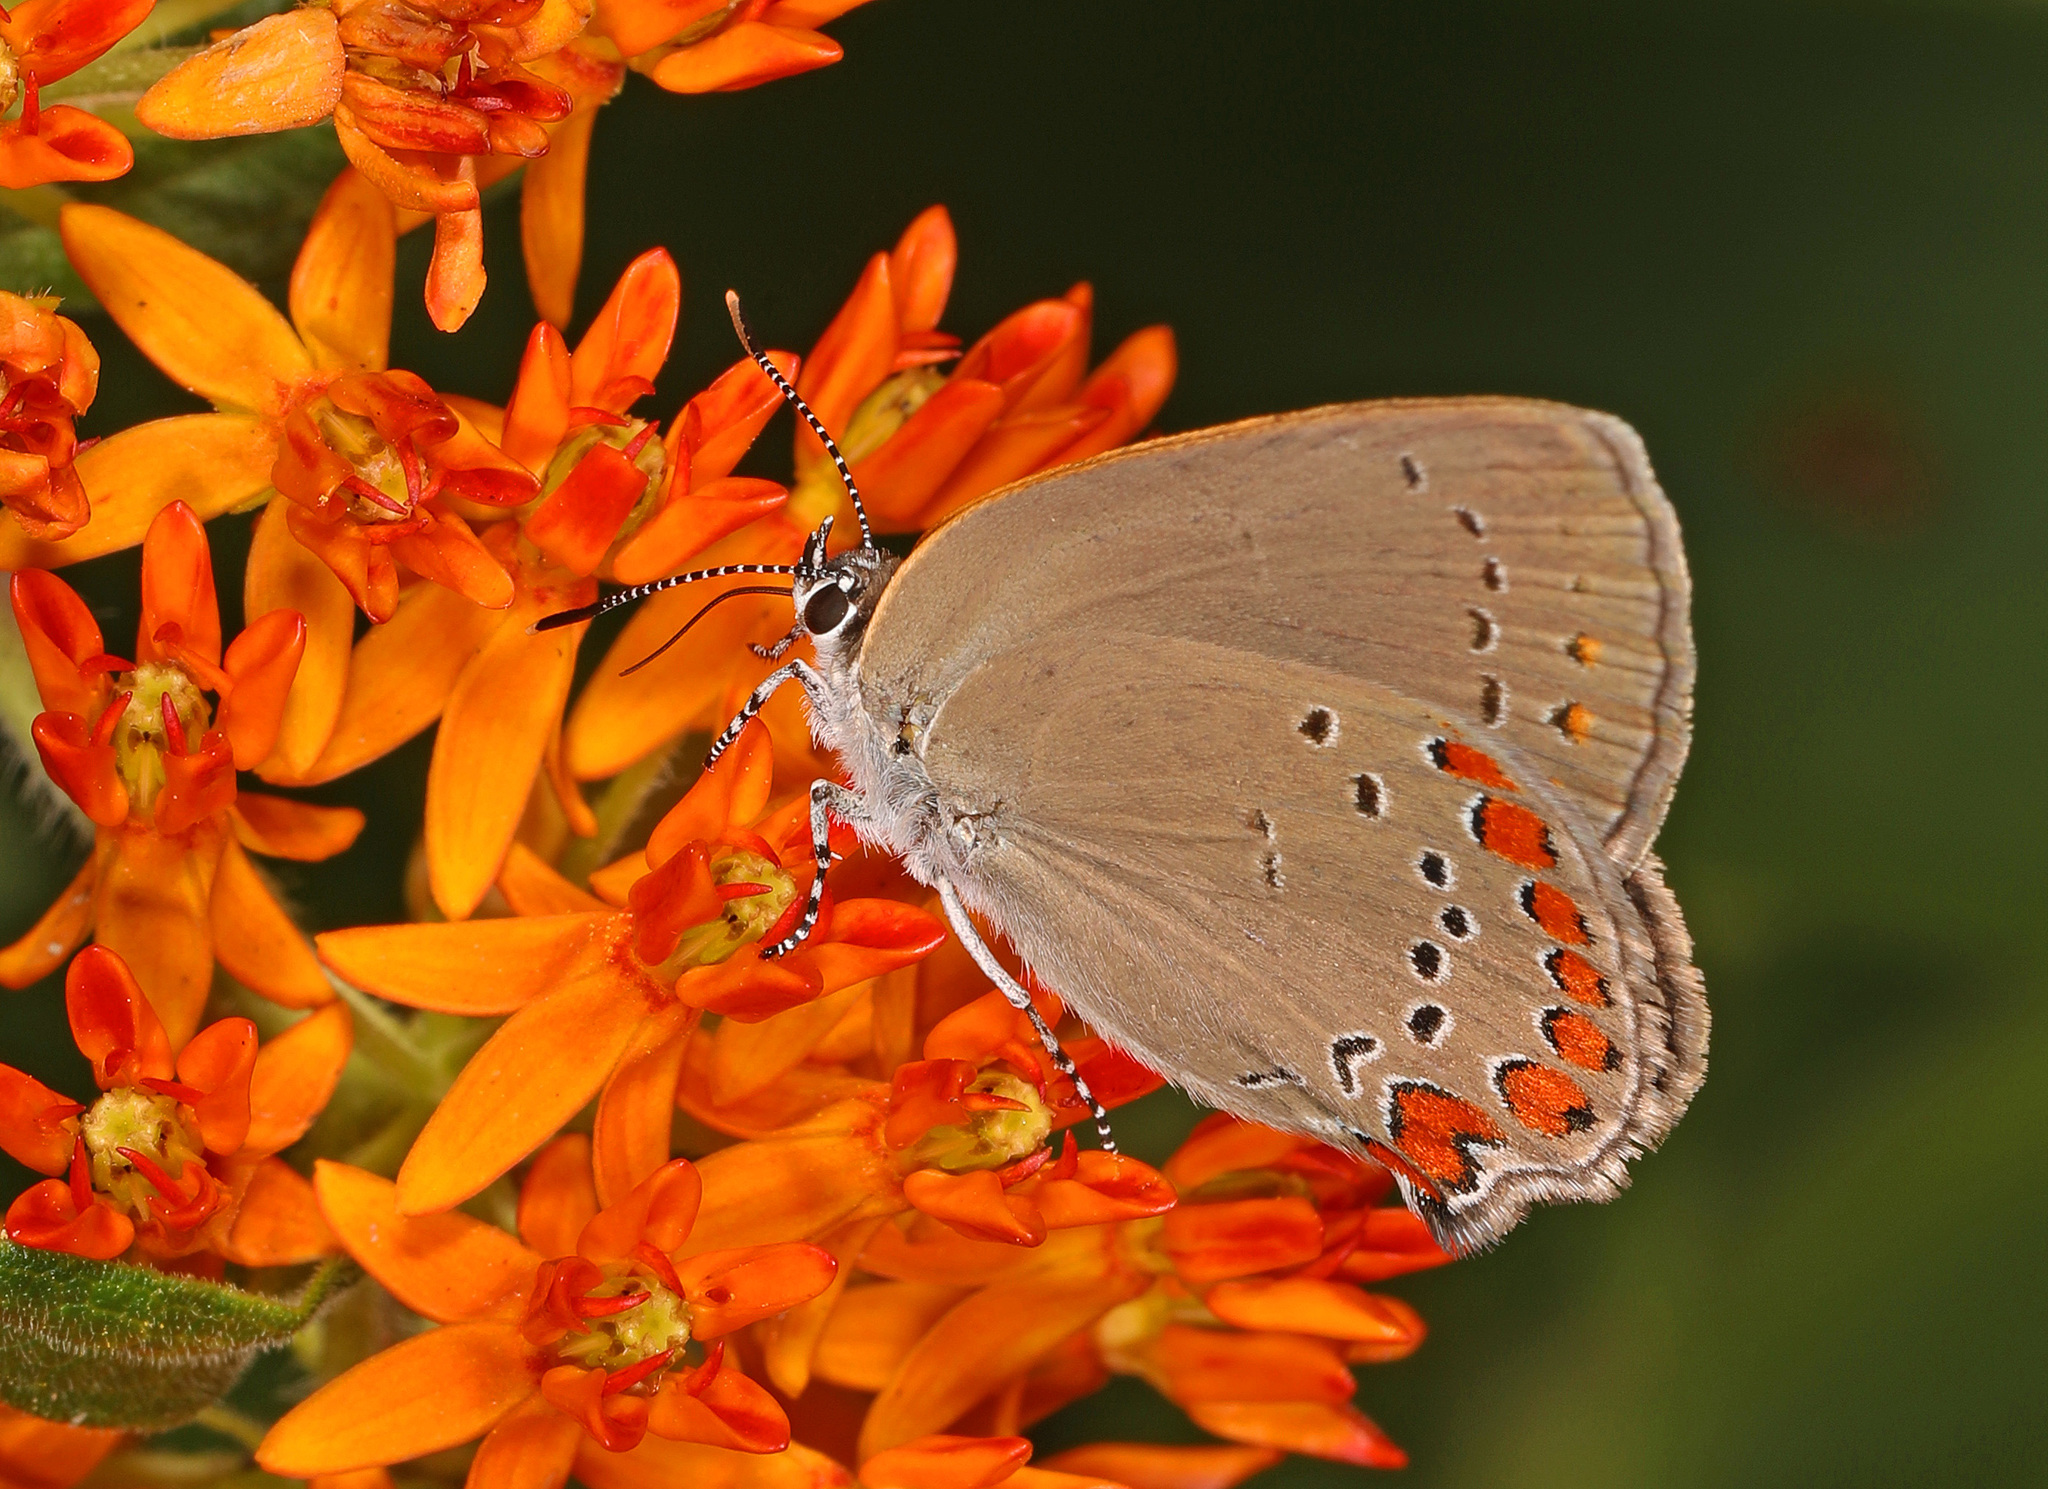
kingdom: Animalia
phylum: Arthropoda
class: Insecta
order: Lepidoptera
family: Lycaenidae
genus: Harkenclenus
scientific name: Harkenclenus titus
